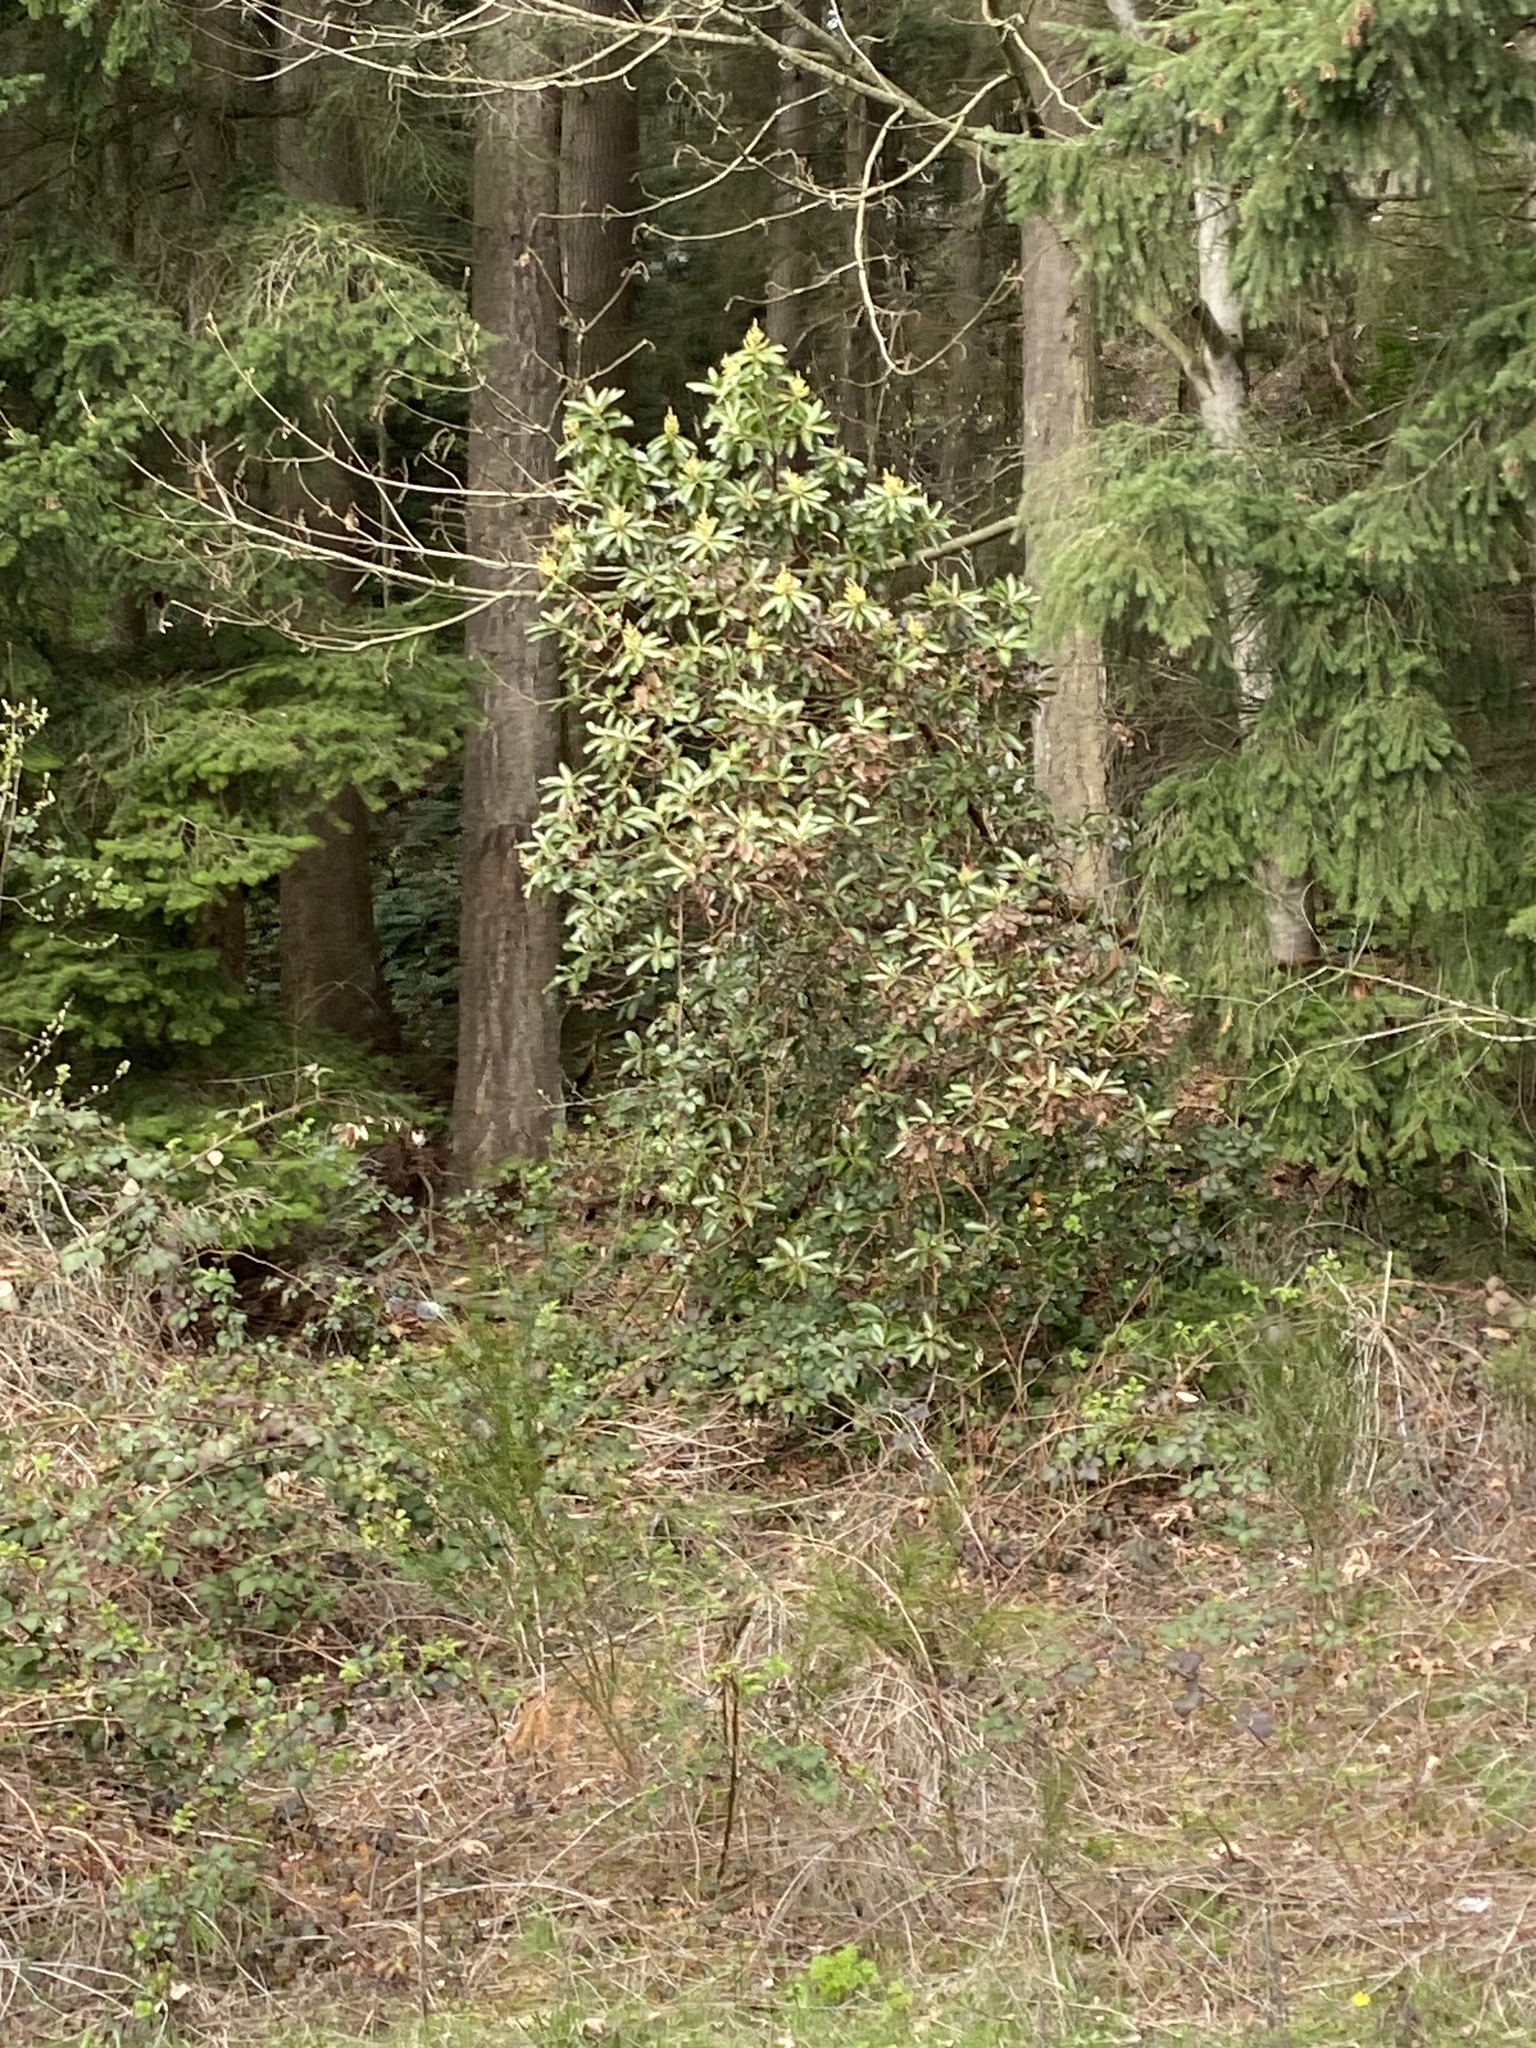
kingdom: Plantae
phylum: Tracheophyta
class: Magnoliopsida
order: Ericales
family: Ericaceae
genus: Arbutus
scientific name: Arbutus menziesii
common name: Pacific madrone
